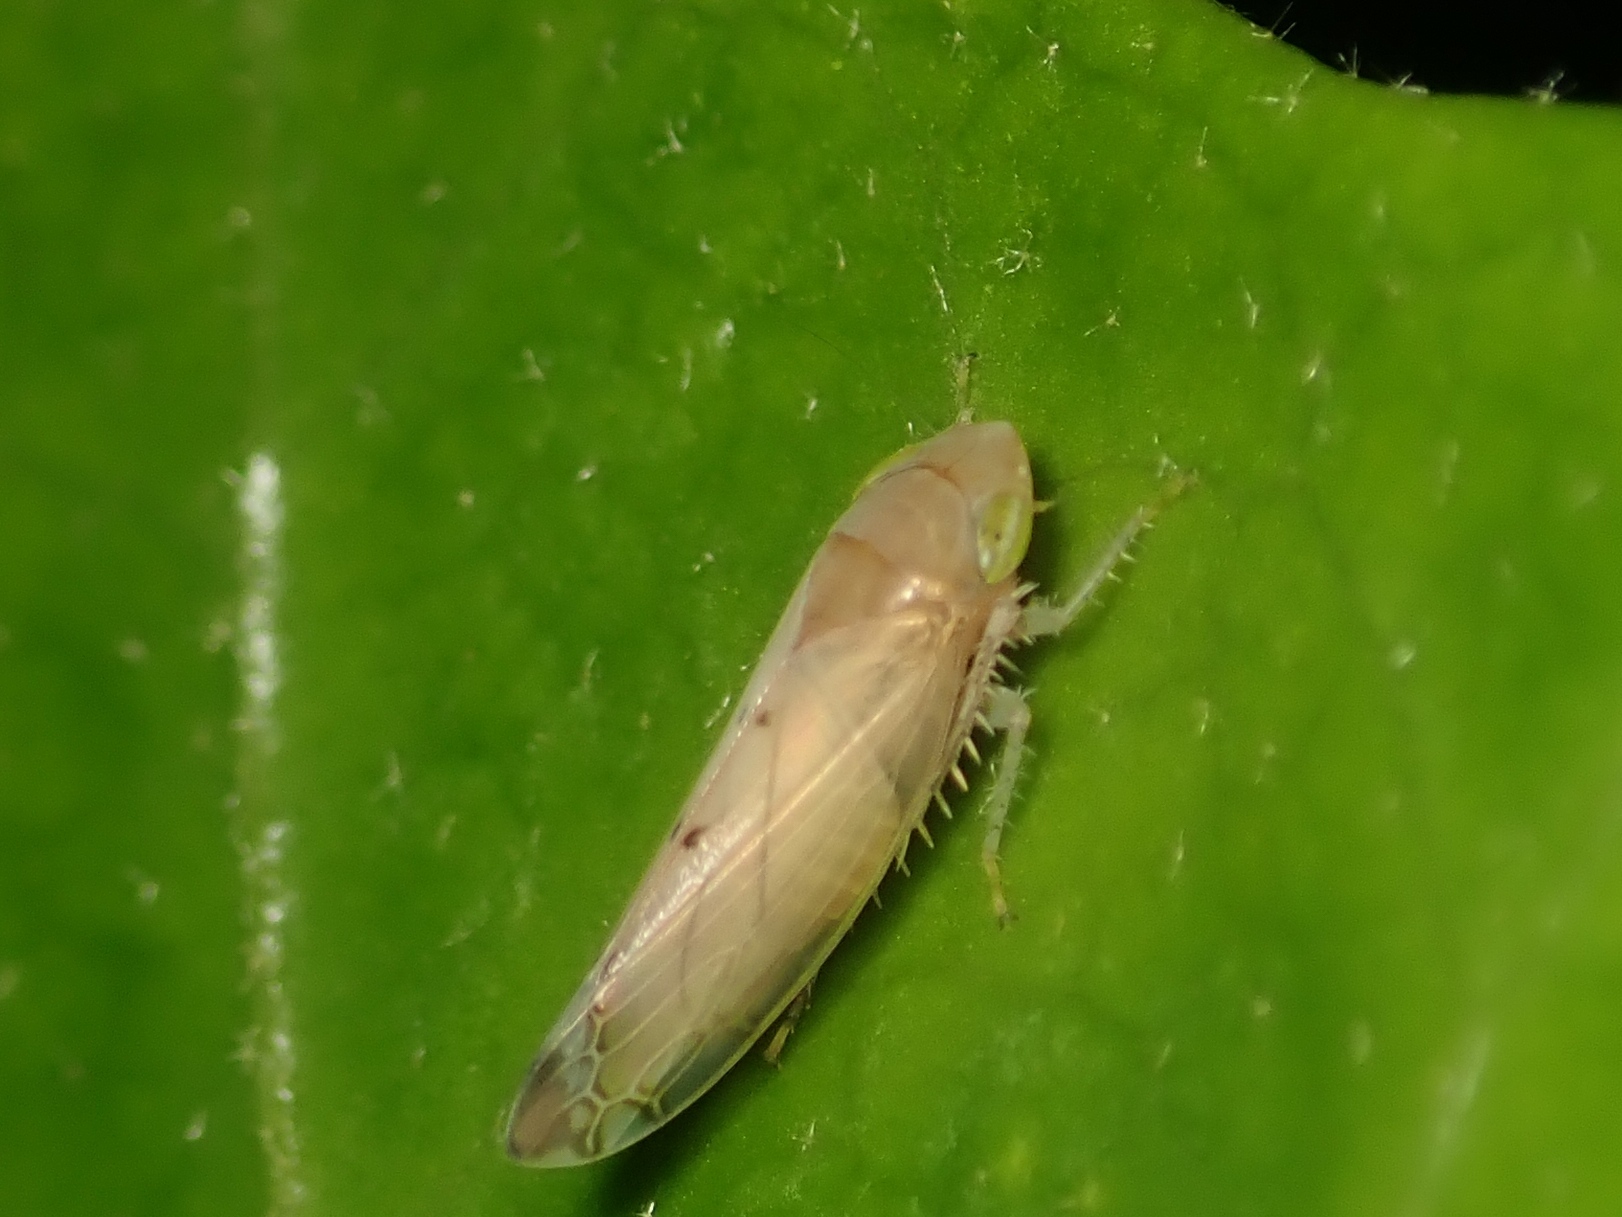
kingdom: Animalia
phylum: Arthropoda
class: Insecta
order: Hemiptera
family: Cicadellidae
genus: Synophropsis
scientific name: Synophropsis lauri
